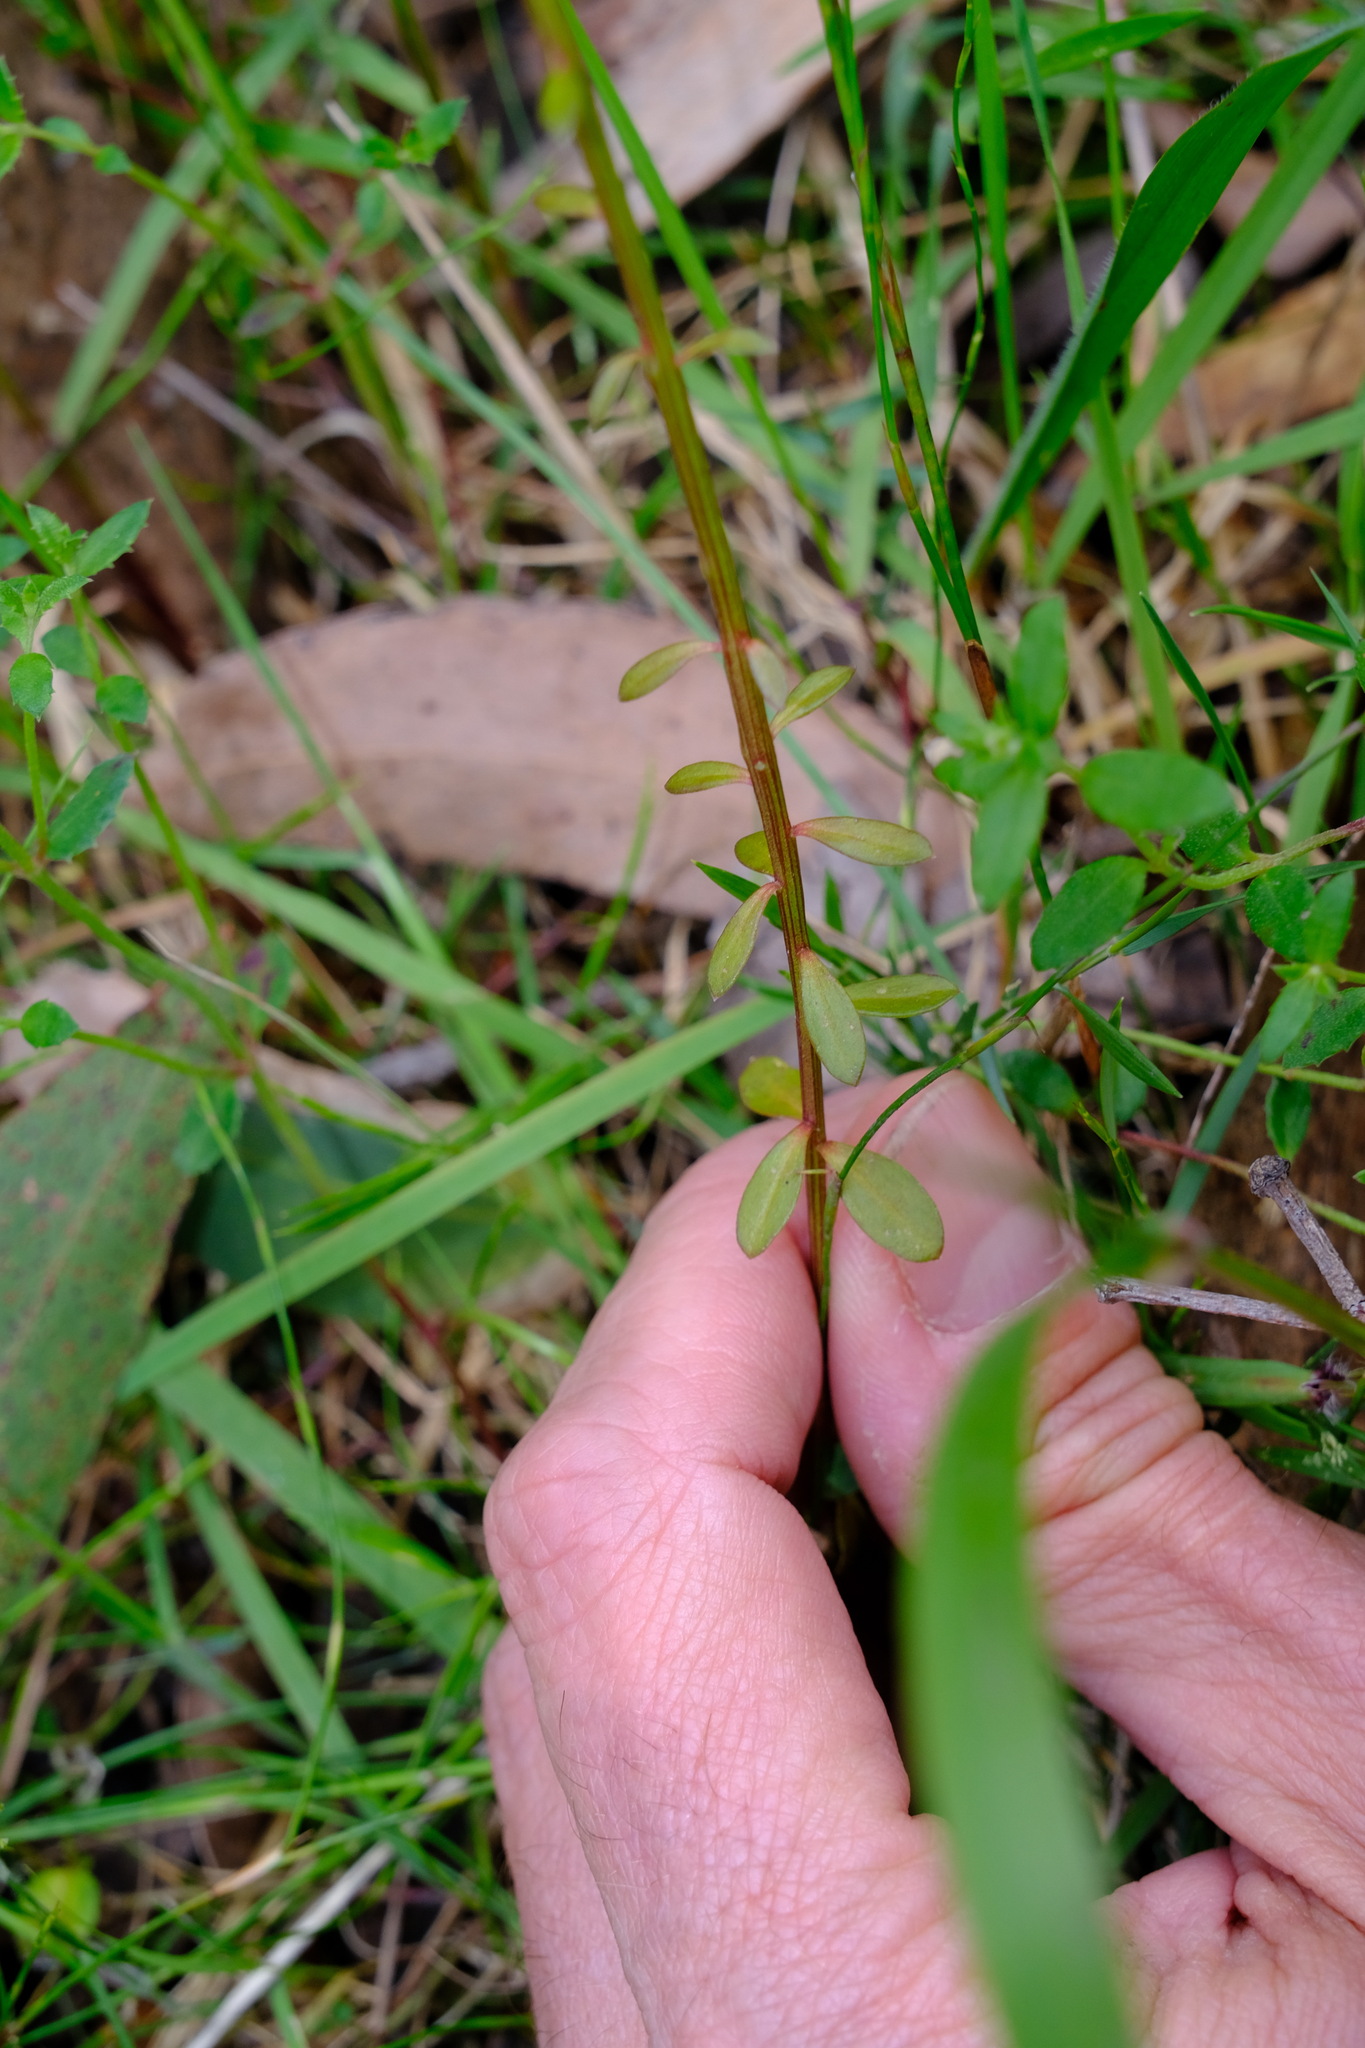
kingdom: Plantae
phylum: Tracheophyta
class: Magnoliopsida
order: Celastrales
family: Celastraceae
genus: Stackhousia
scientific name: Stackhousia monogyna
